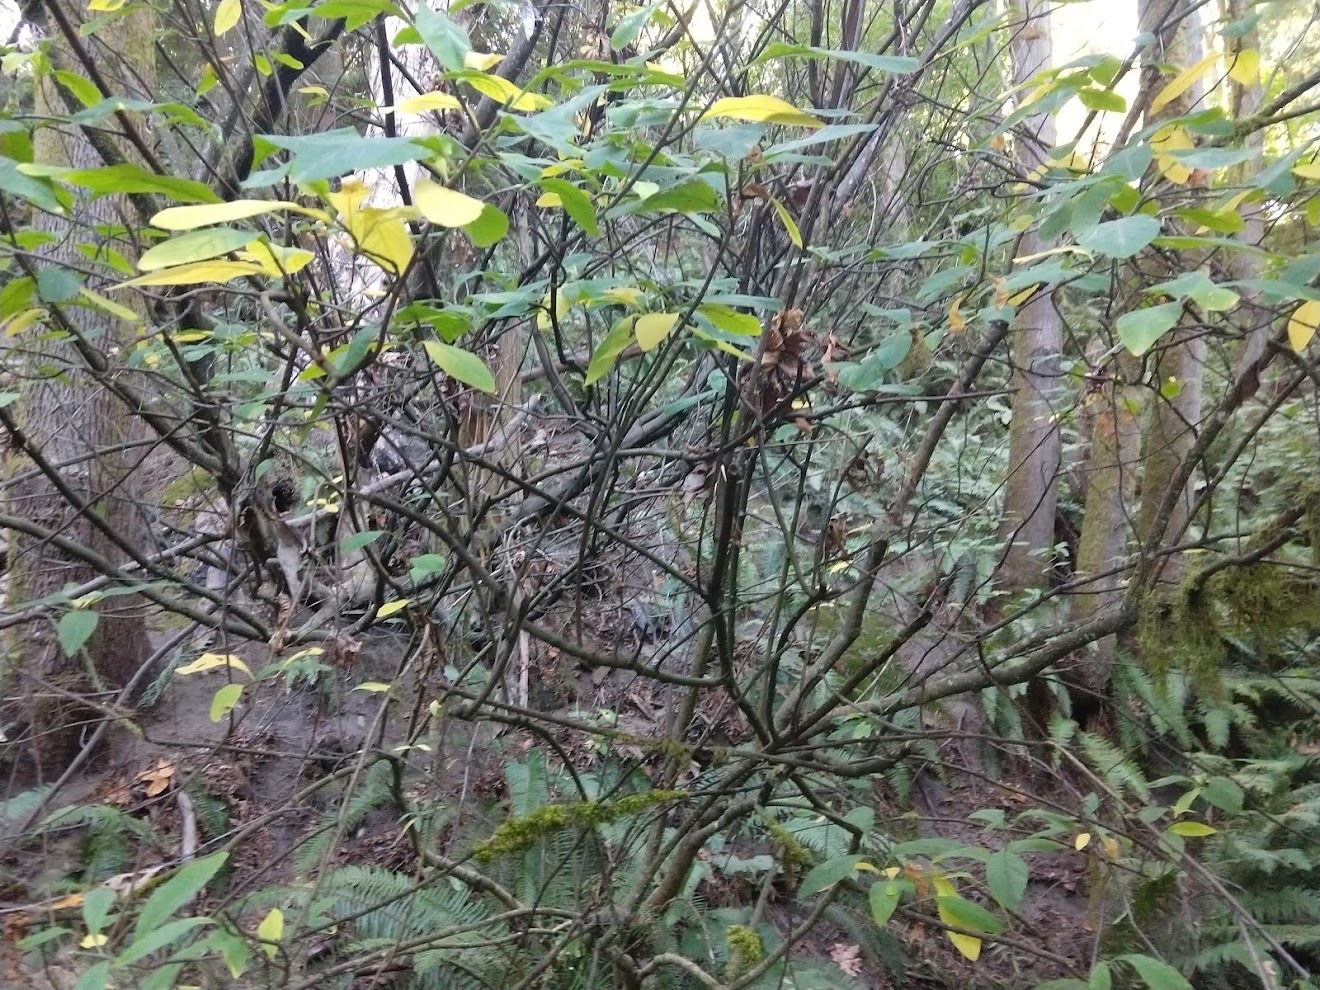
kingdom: Plantae
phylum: Tracheophyta
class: Magnoliopsida
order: Rosales
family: Rosaceae
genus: Oemleria
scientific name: Oemleria cerasiformis
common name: Osoberry
